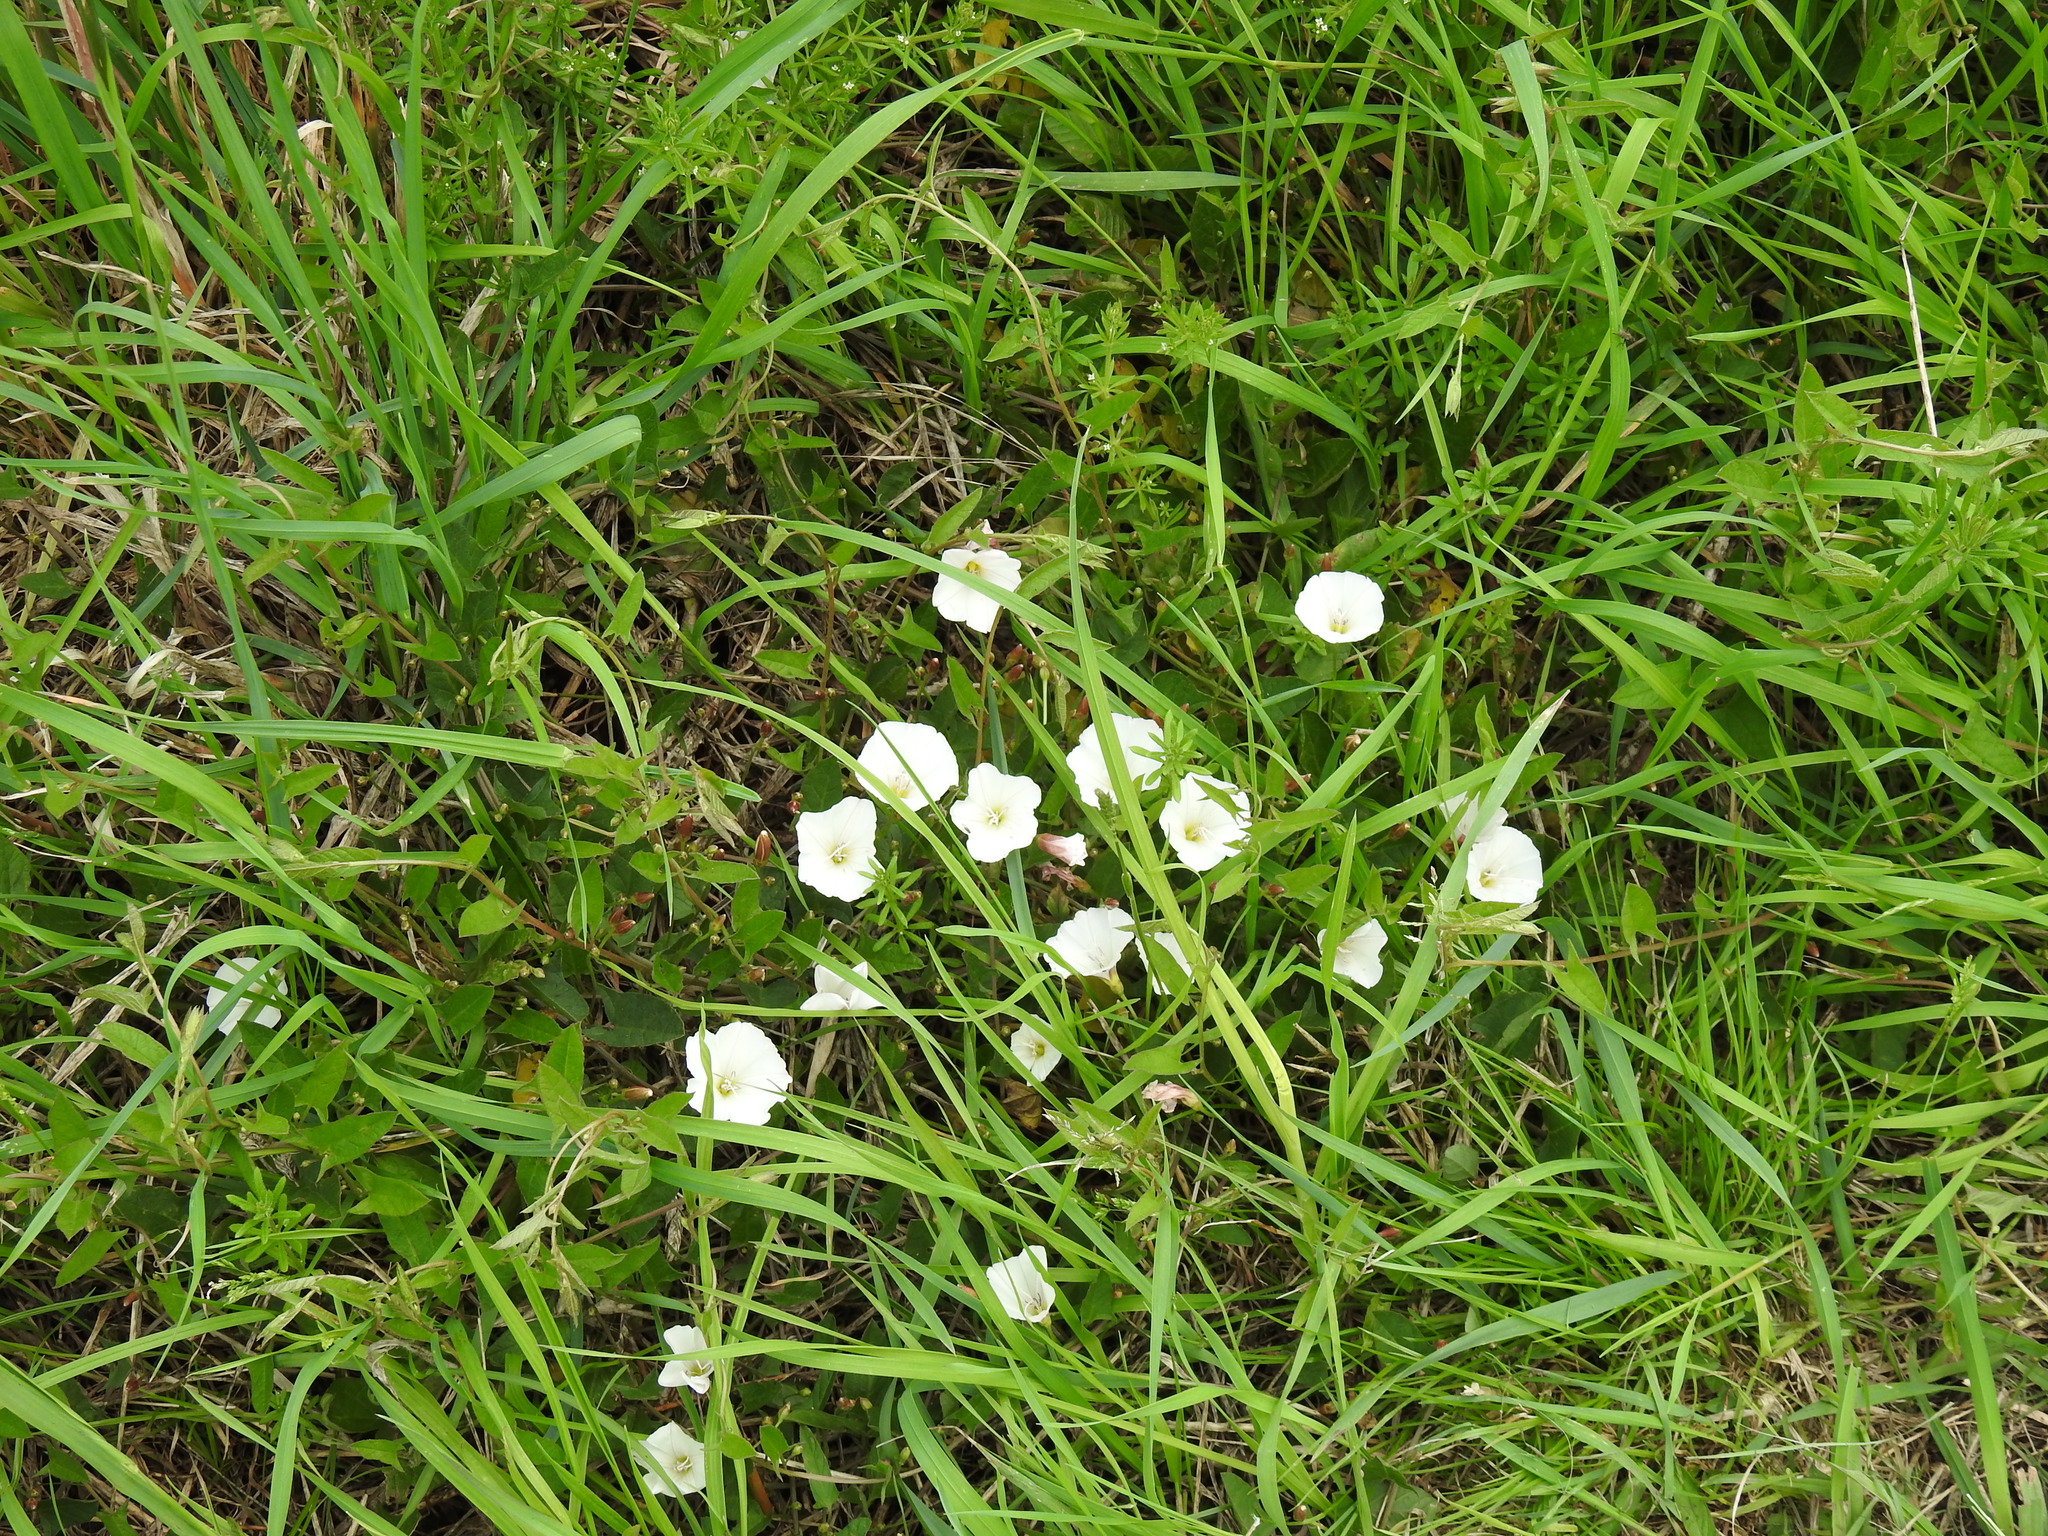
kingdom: Plantae
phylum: Tracheophyta
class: Magnoliopsida
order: Solanales
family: Convolvulaceae
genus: Convolvulus
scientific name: Convolvulus arvensis
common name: Field bindweed
